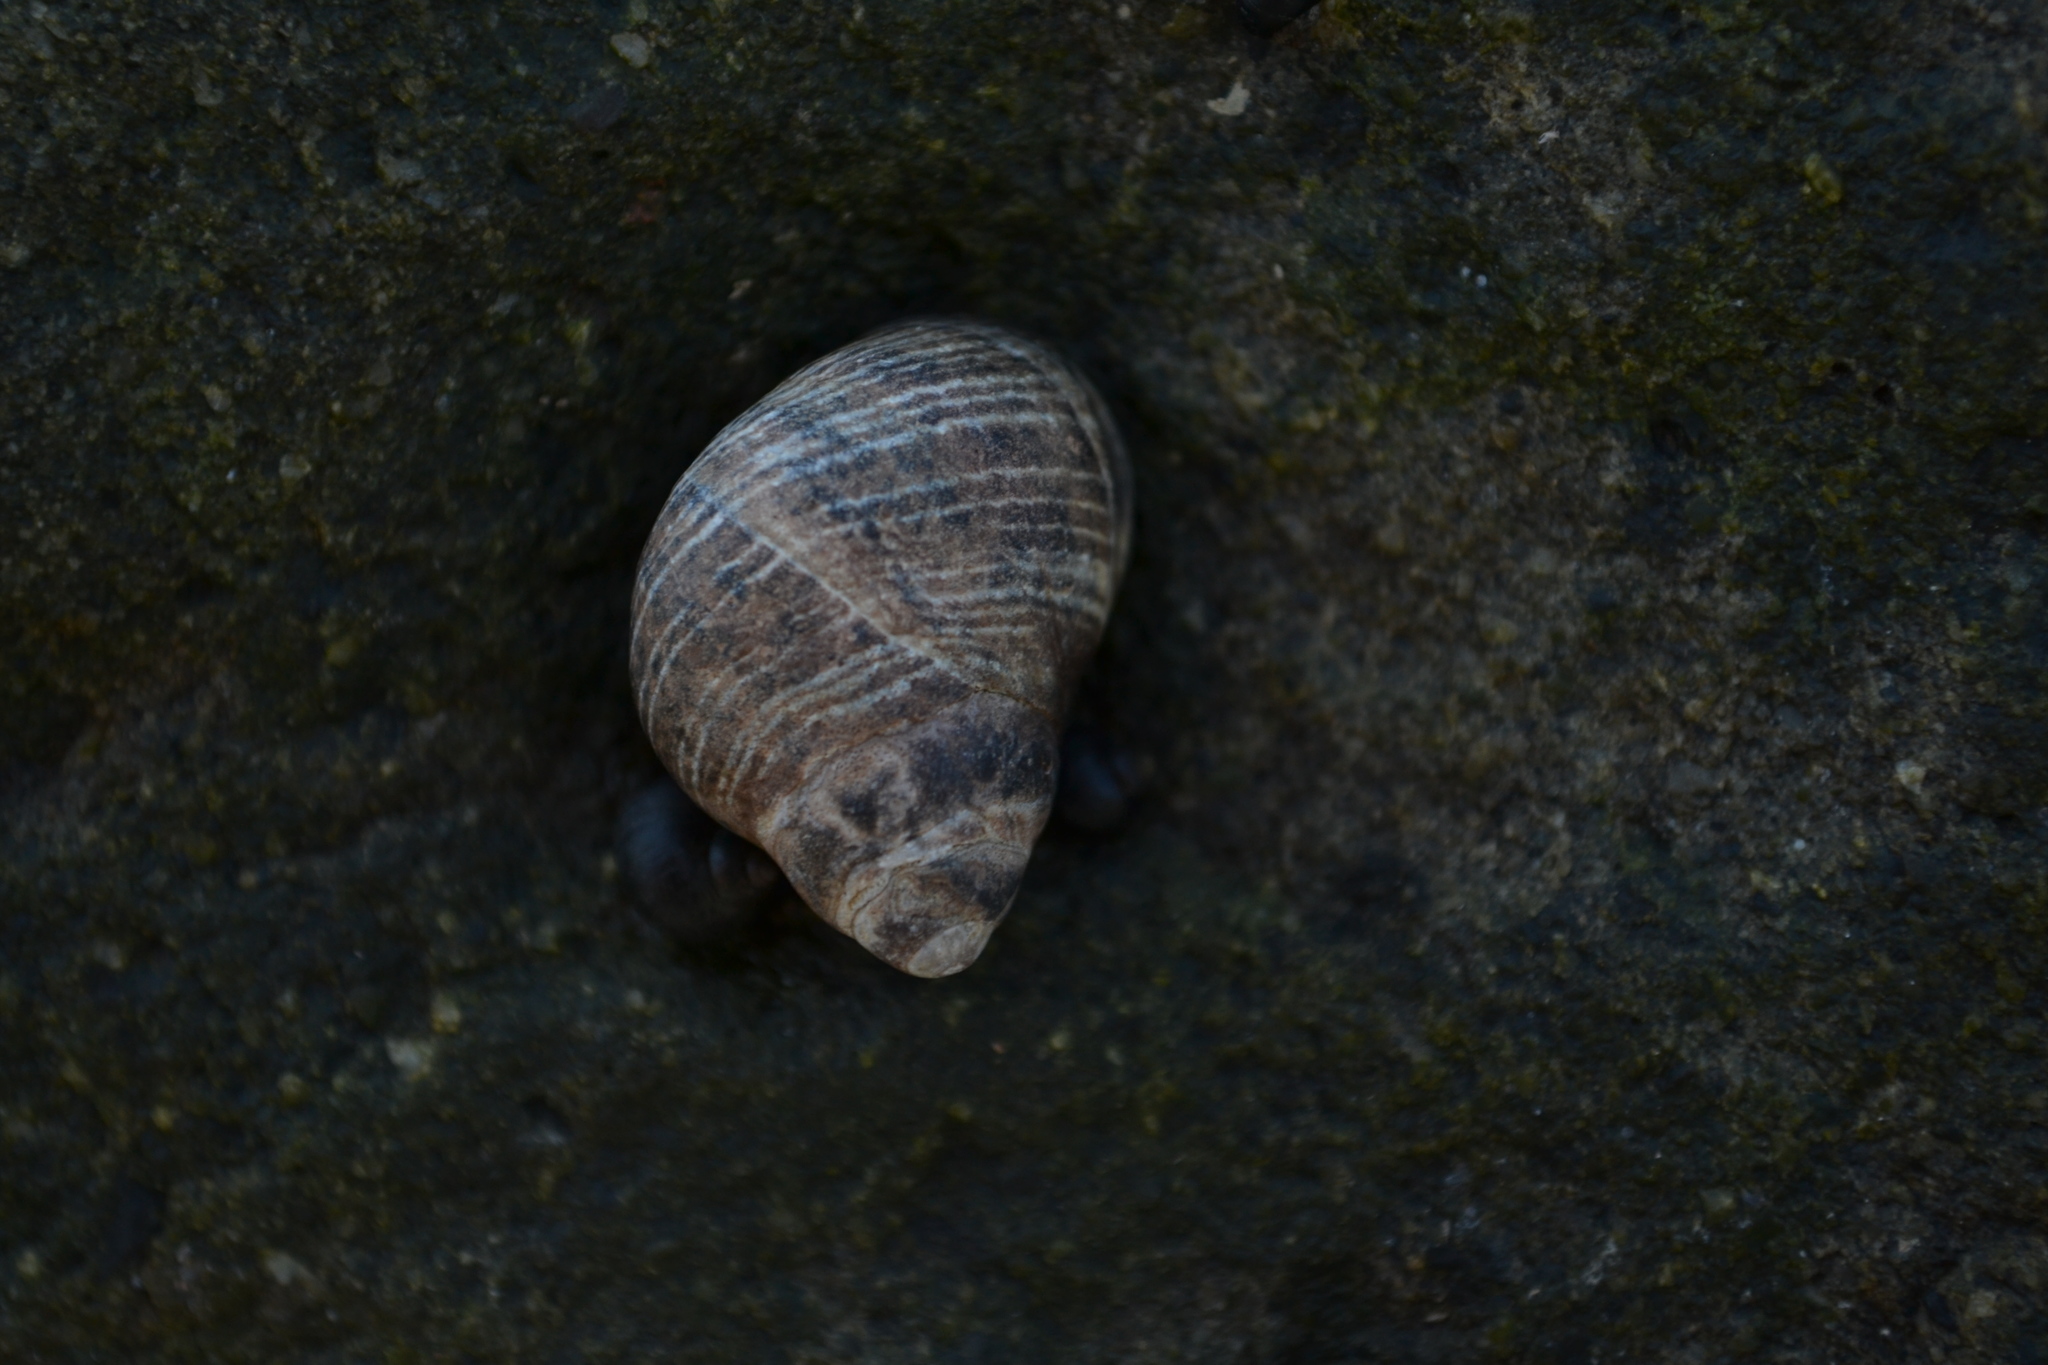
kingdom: Animalia
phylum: Mollusca
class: Gastropoda
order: Littorinimorpha
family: Littorinidae
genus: Littorina
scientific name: Littorina littorea
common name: Common periwinkle
